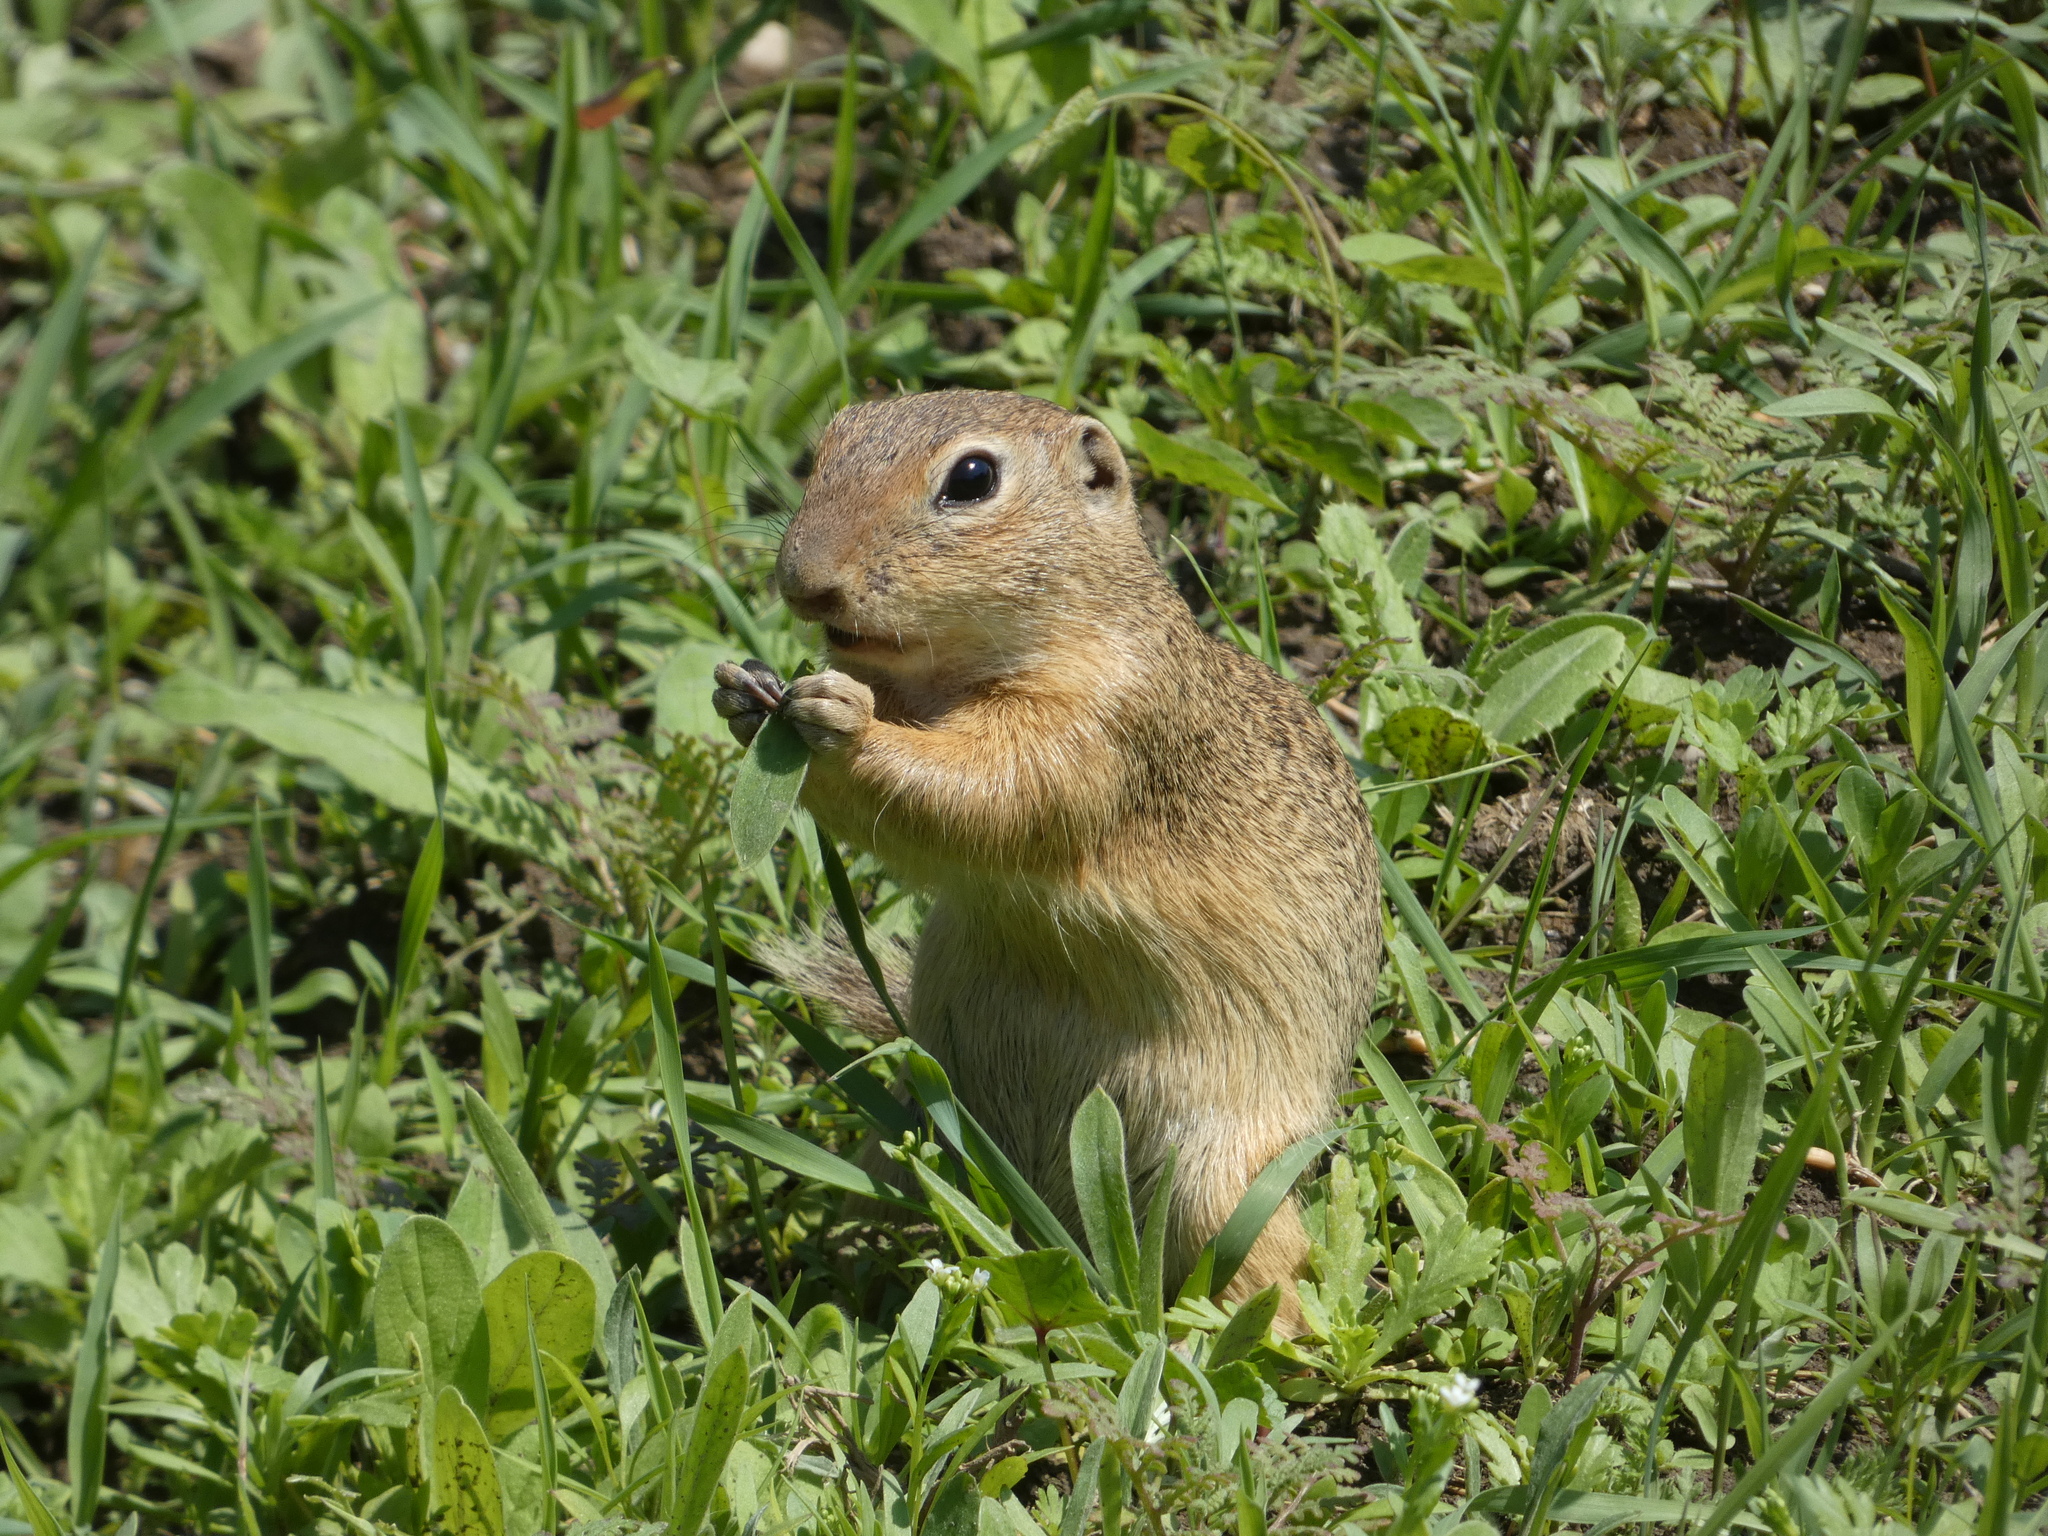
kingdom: Animalia
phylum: Chordata
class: Mammalia
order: Rodentia
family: Sciuridae
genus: Spermophilus
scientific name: Spermophilus citellus
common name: European ground squirrel
